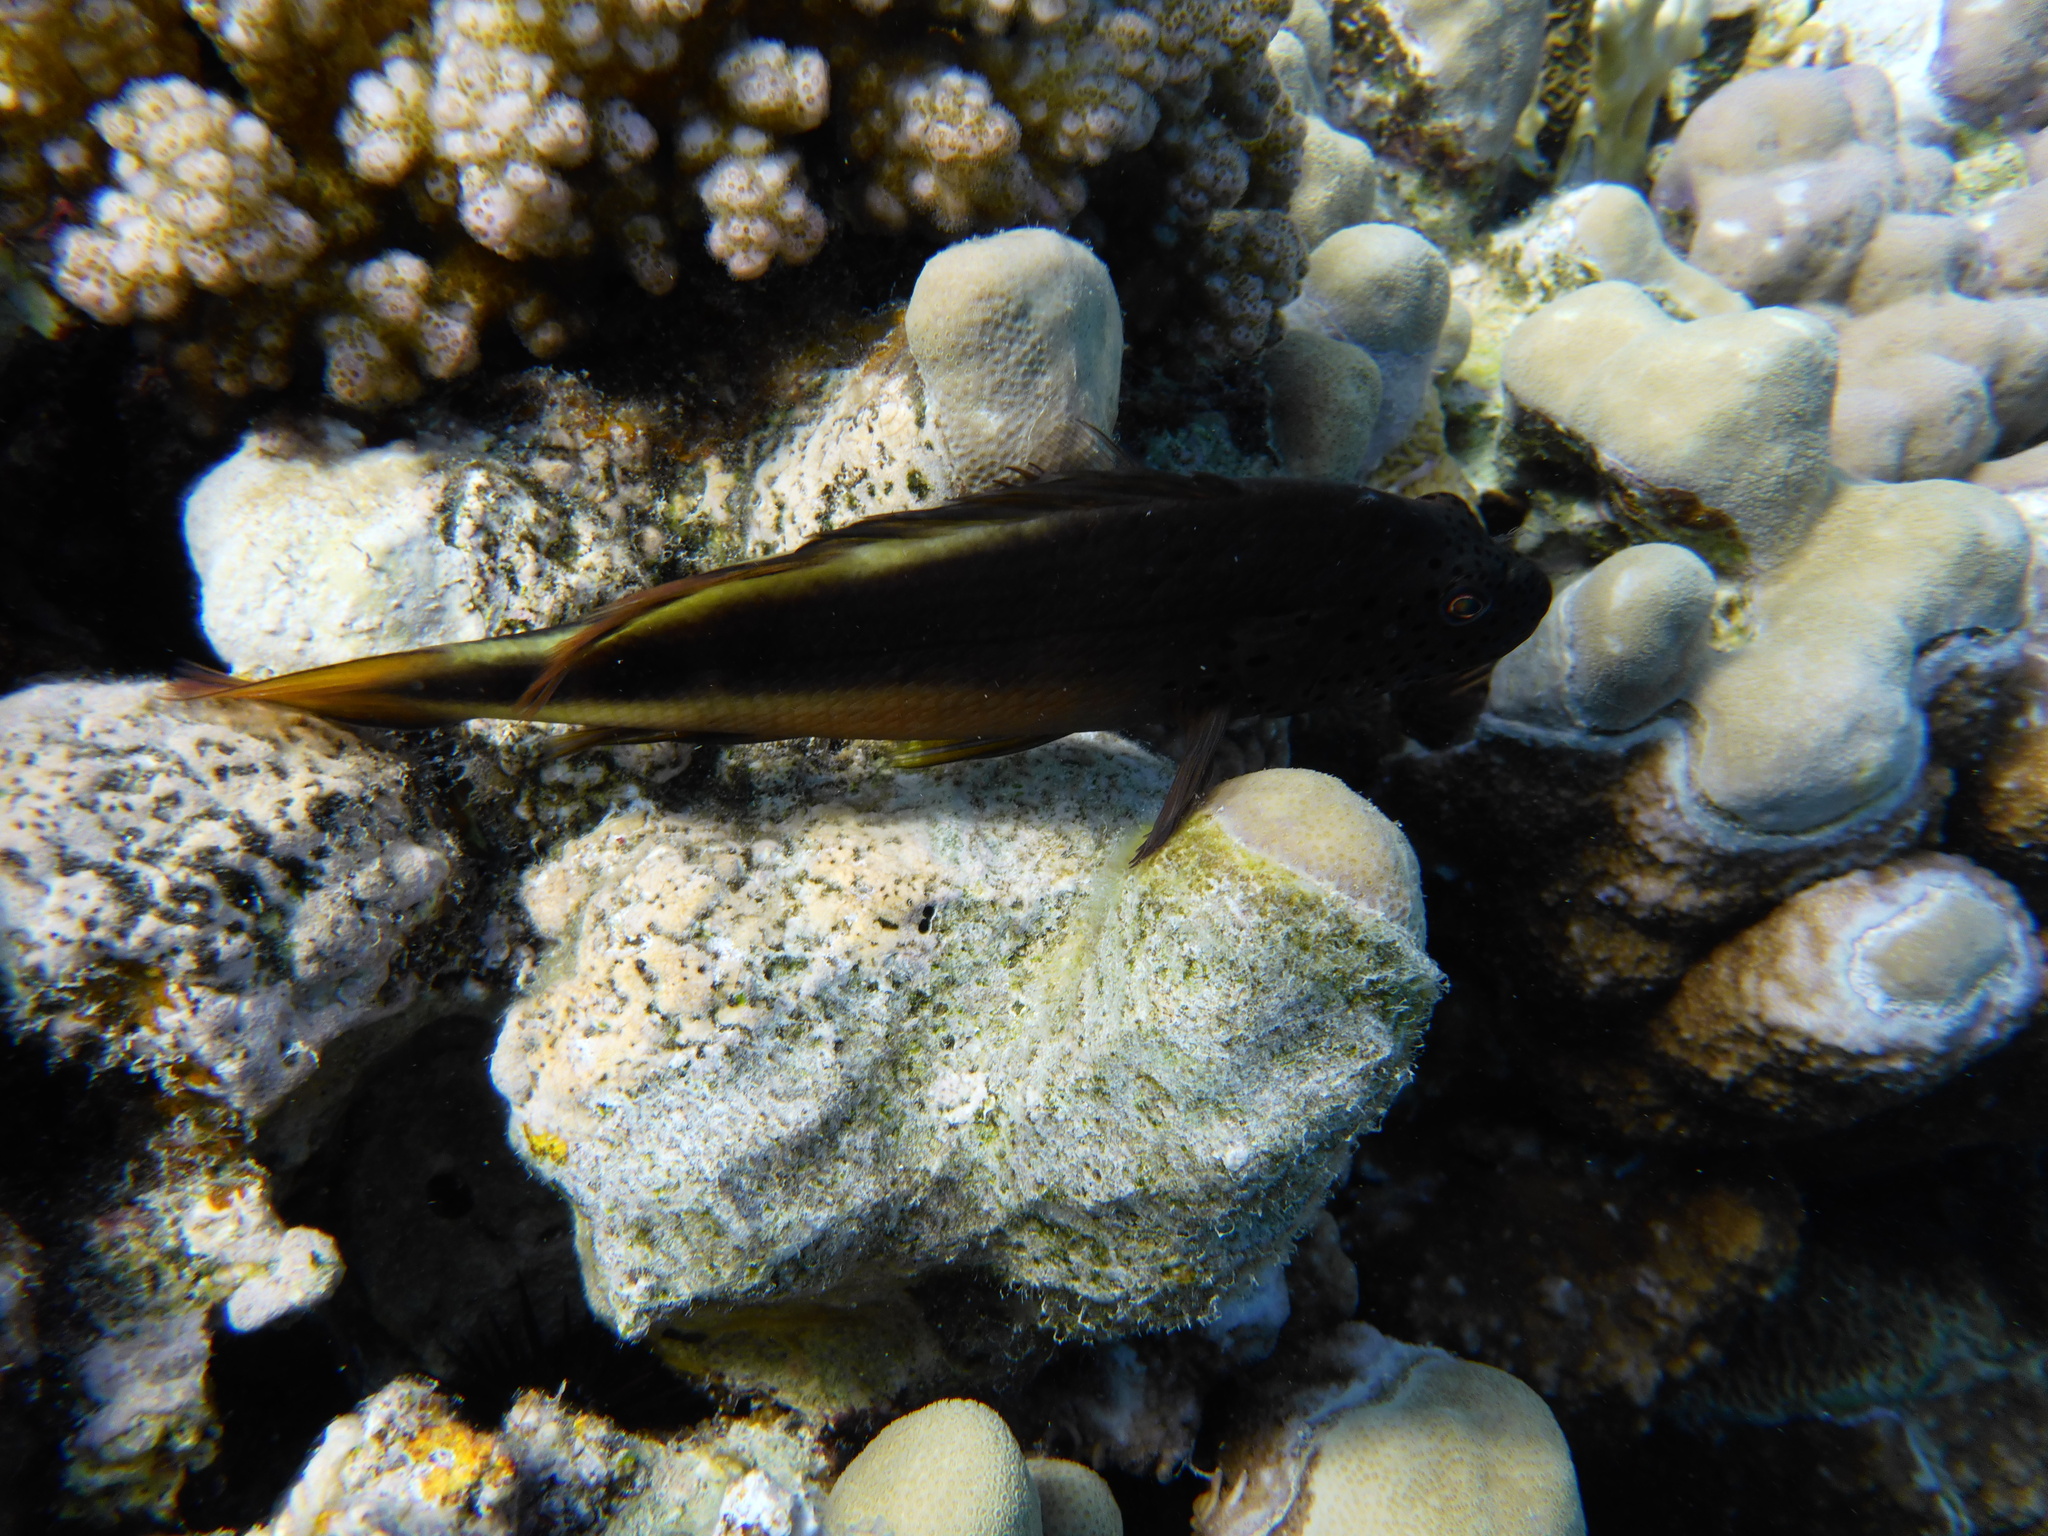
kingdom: Animalia
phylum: Chordata
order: Perciformes
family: Cirrhitidae
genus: Paracirrhites
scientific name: Paracirrhites forsteri
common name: Freckled hawkfish
